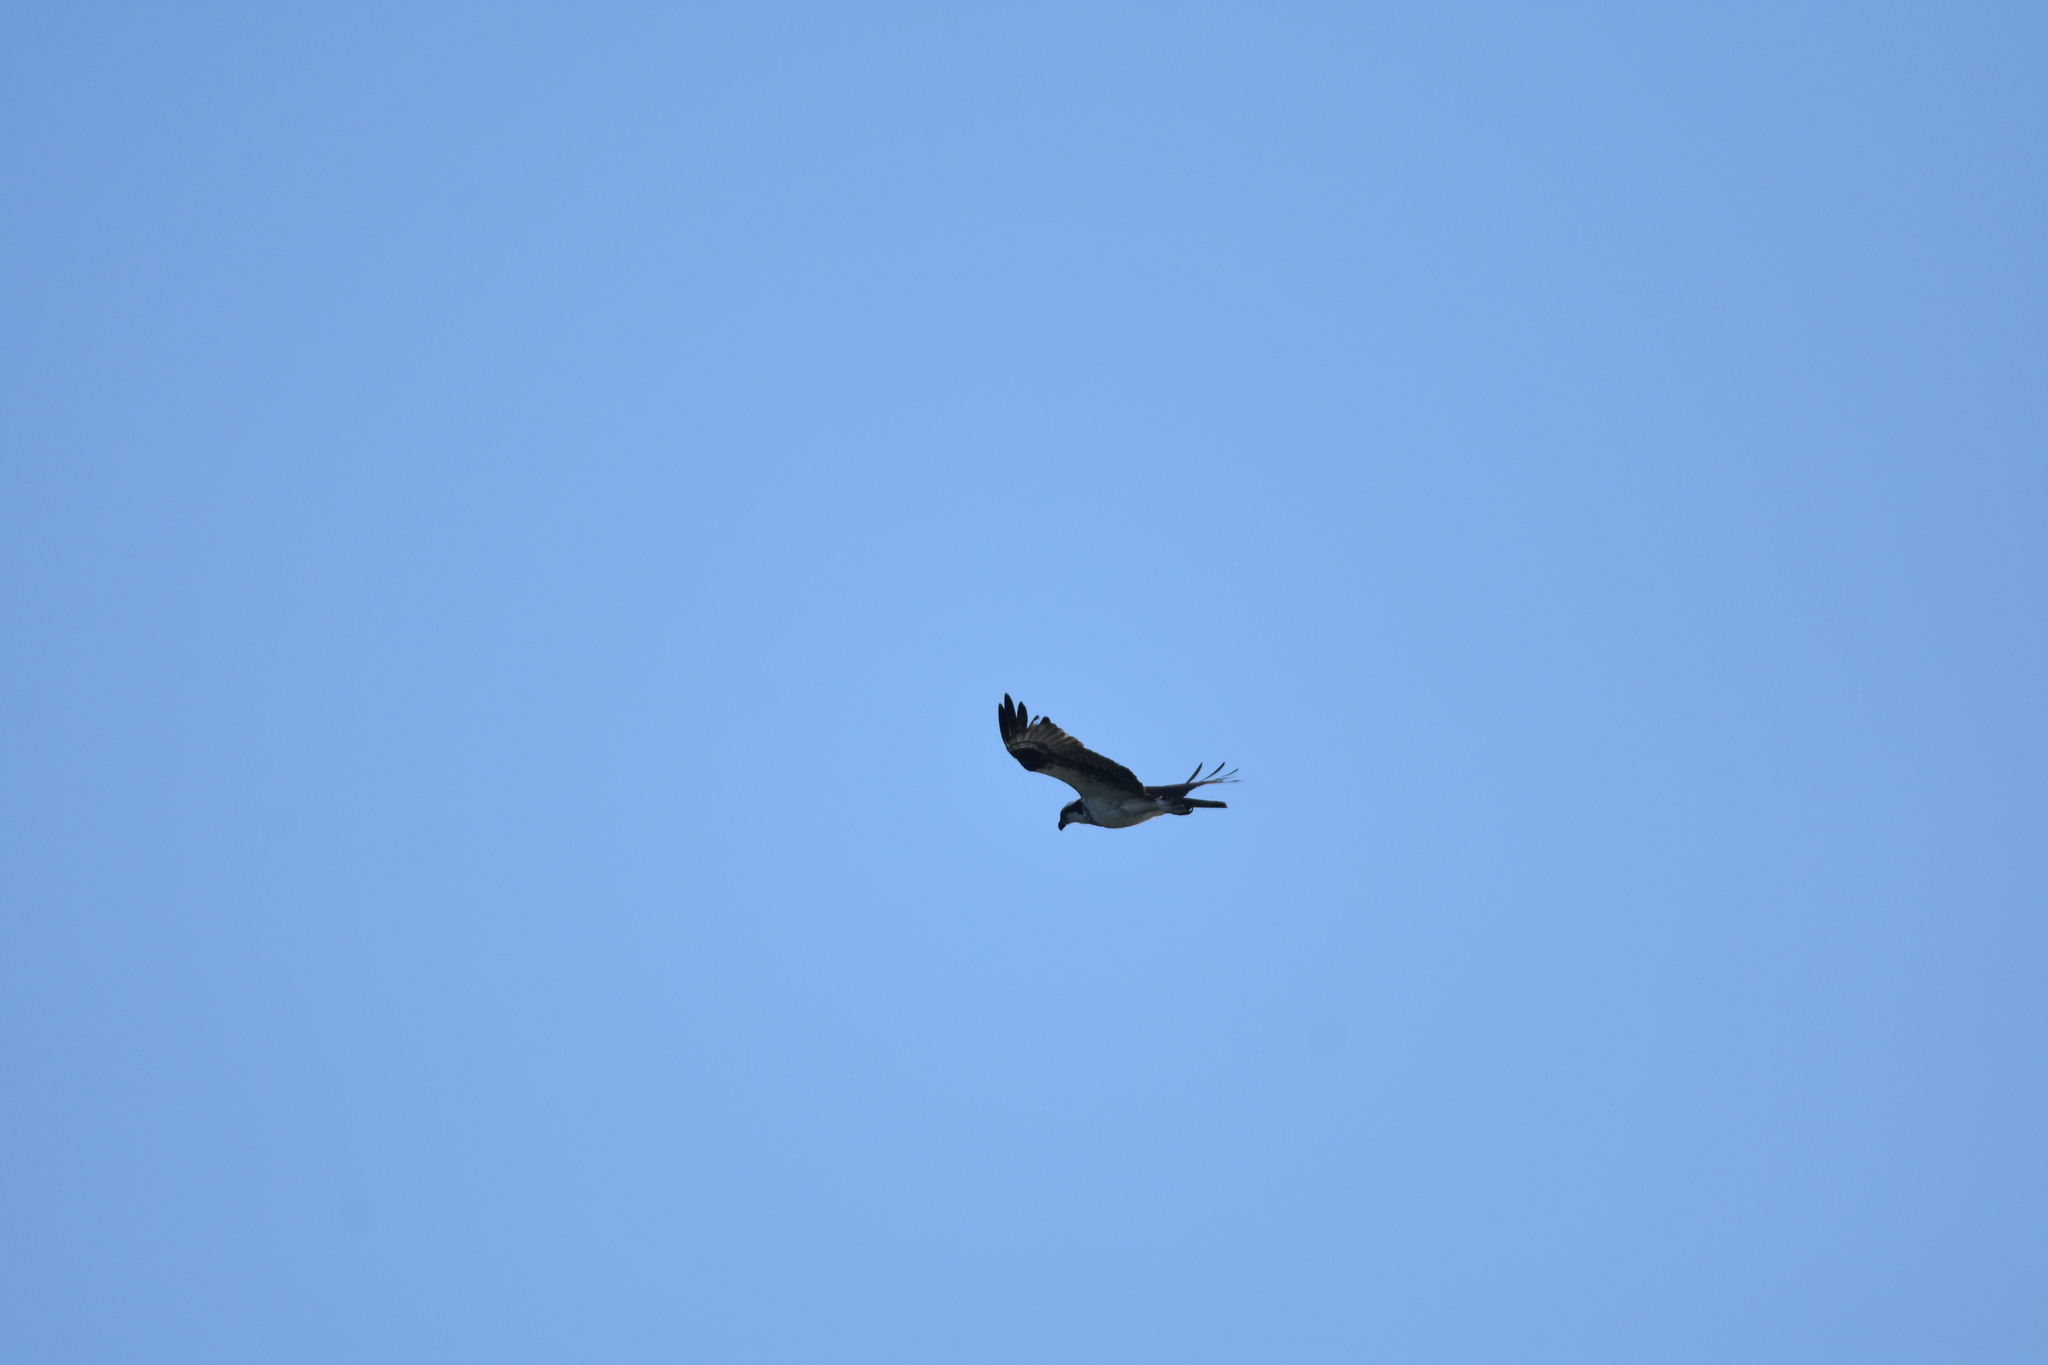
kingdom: Animalia
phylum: Chordata
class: Aves
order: Accipitriformes
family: Pandionidae
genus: Pandion
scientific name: Pandion haliaetus
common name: Osprey
